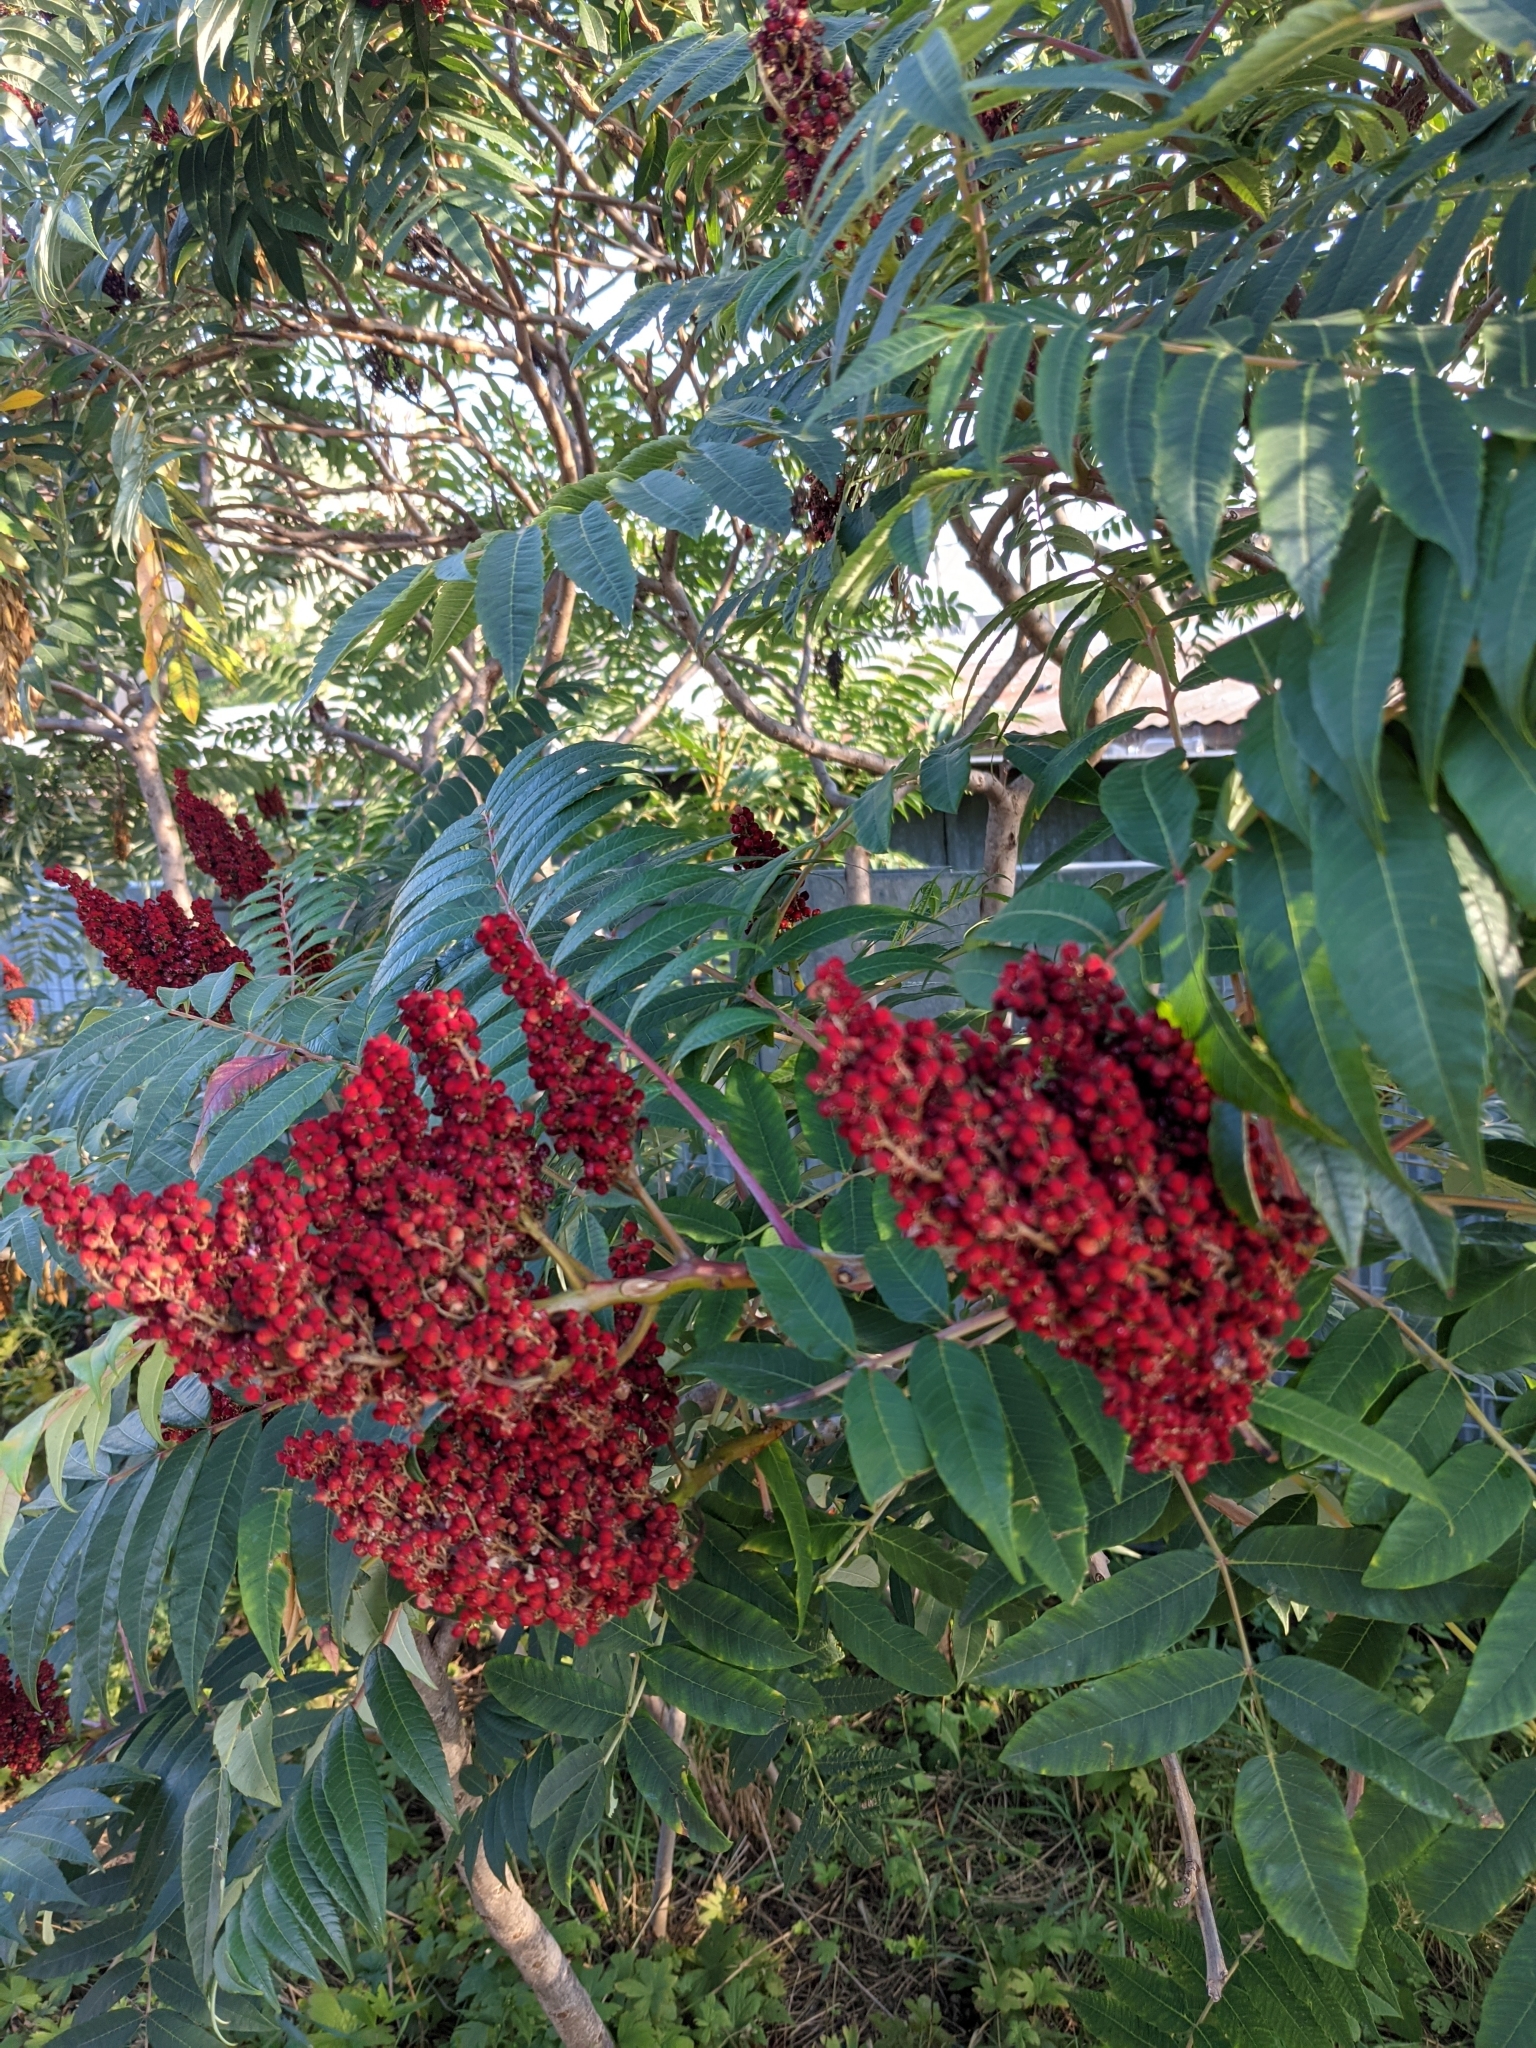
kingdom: Plantae
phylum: Tracheophyta
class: Magnoliopsida
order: Sapindales
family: Anacardiaceae
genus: Rhus
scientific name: Rhus glabra
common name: Scarlet sumac
